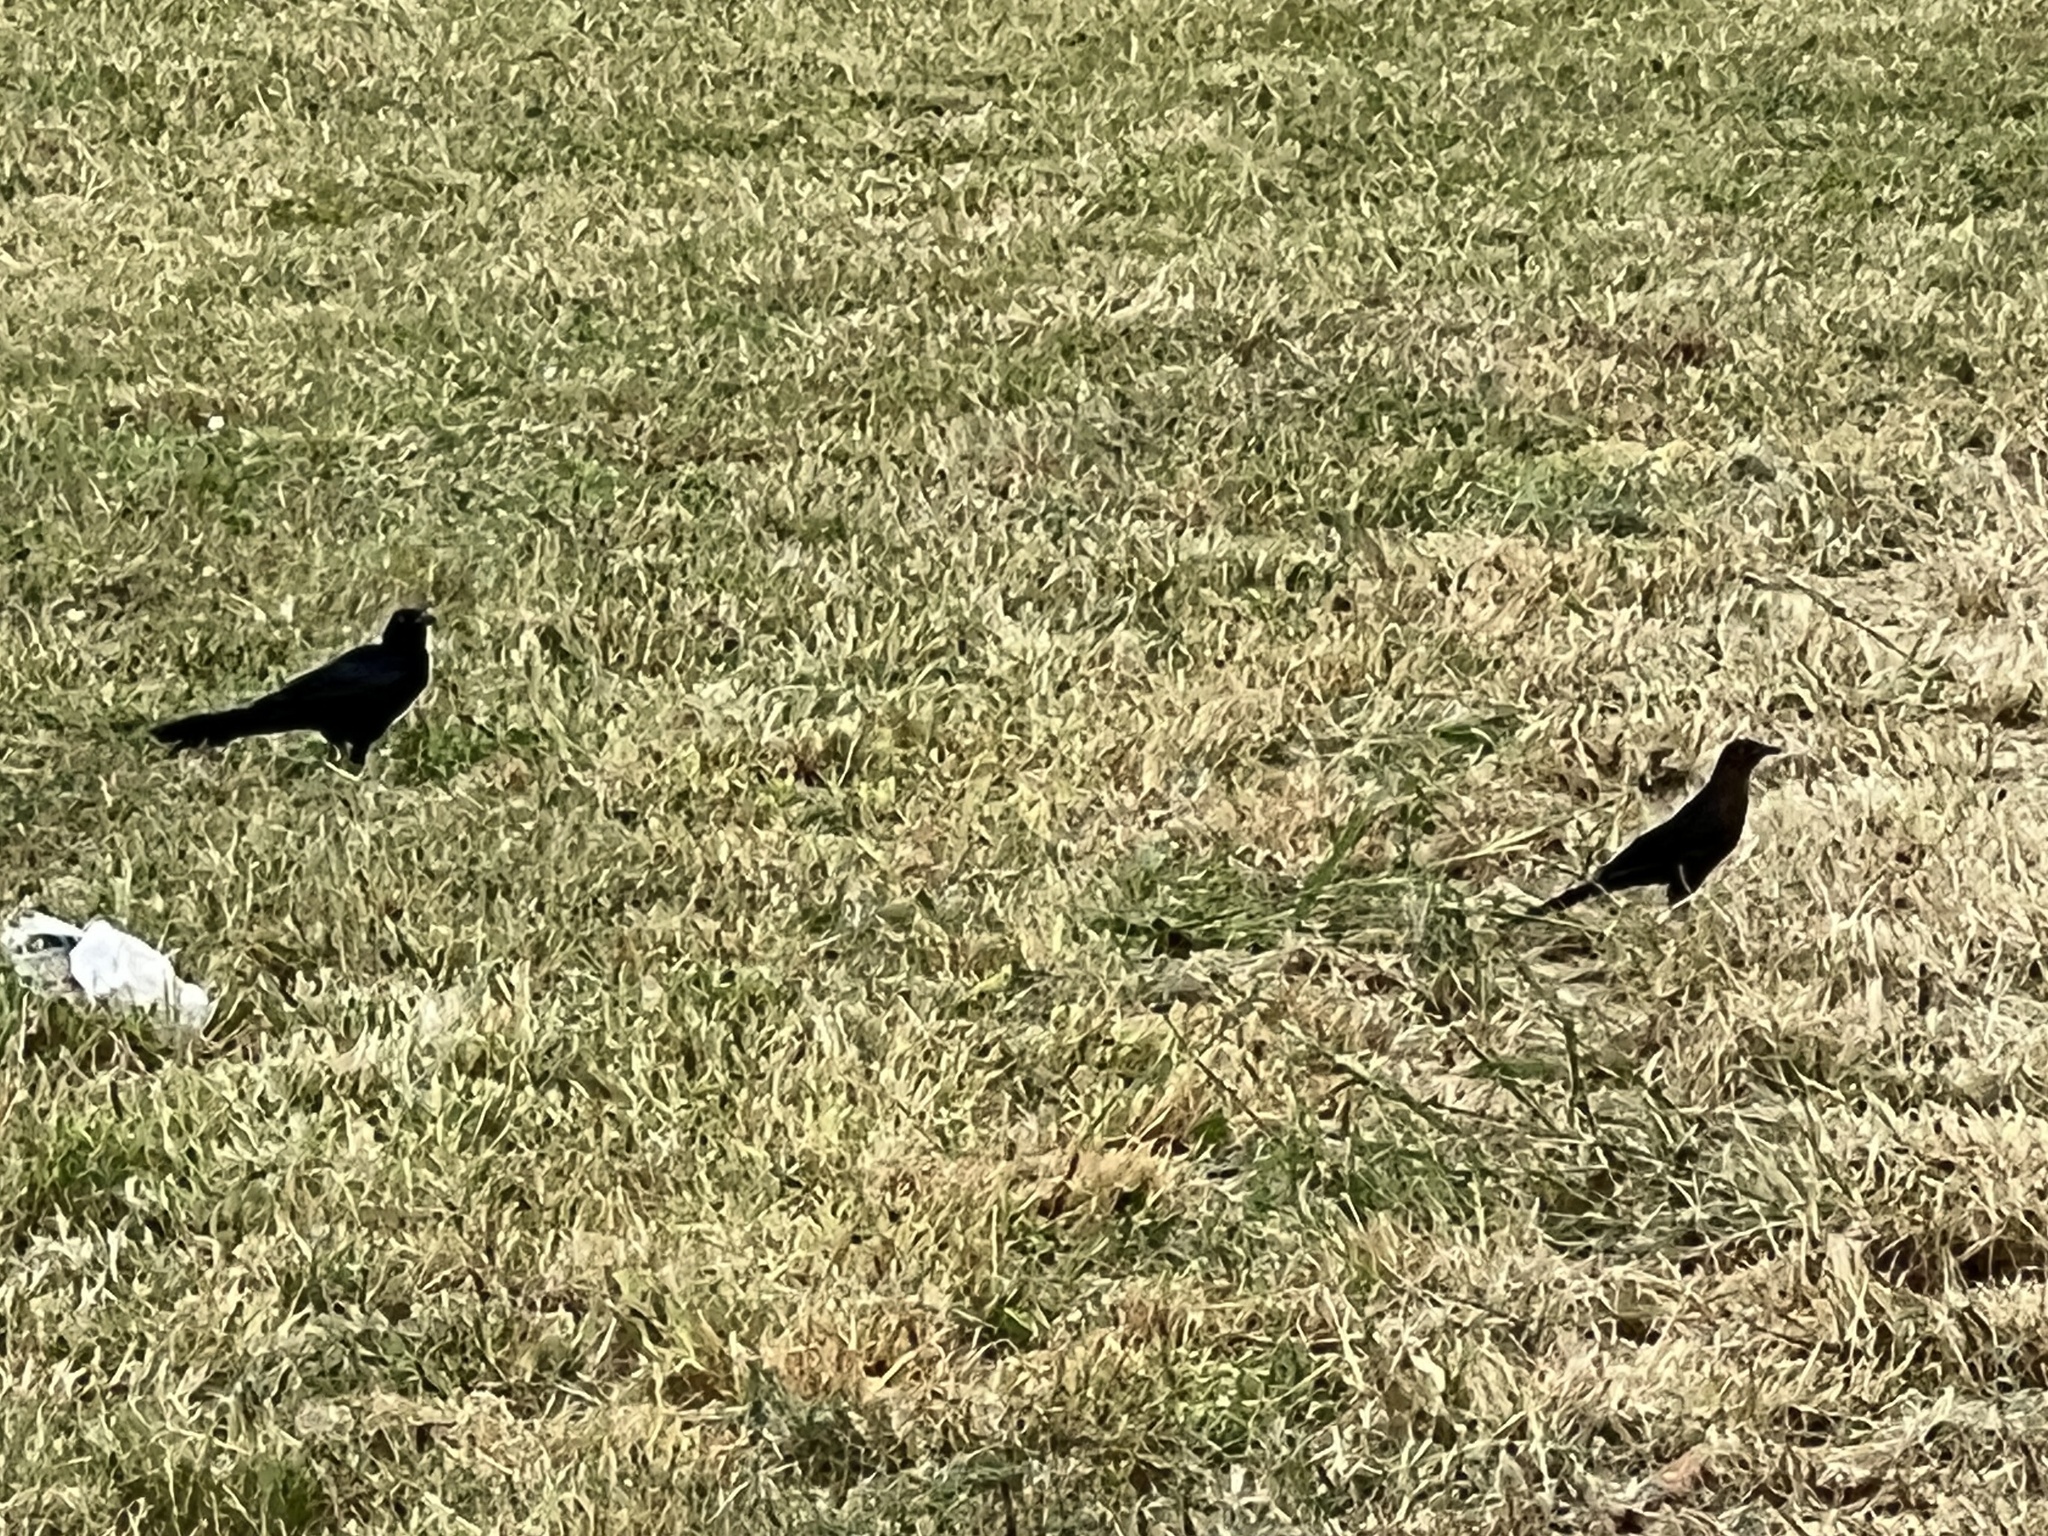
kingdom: Animalia
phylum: Chordata
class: Aves
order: Passeriformes
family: Icteridae
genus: Quiscalus
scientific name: Quiscalus mexicanus
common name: Great-tailed grackle
